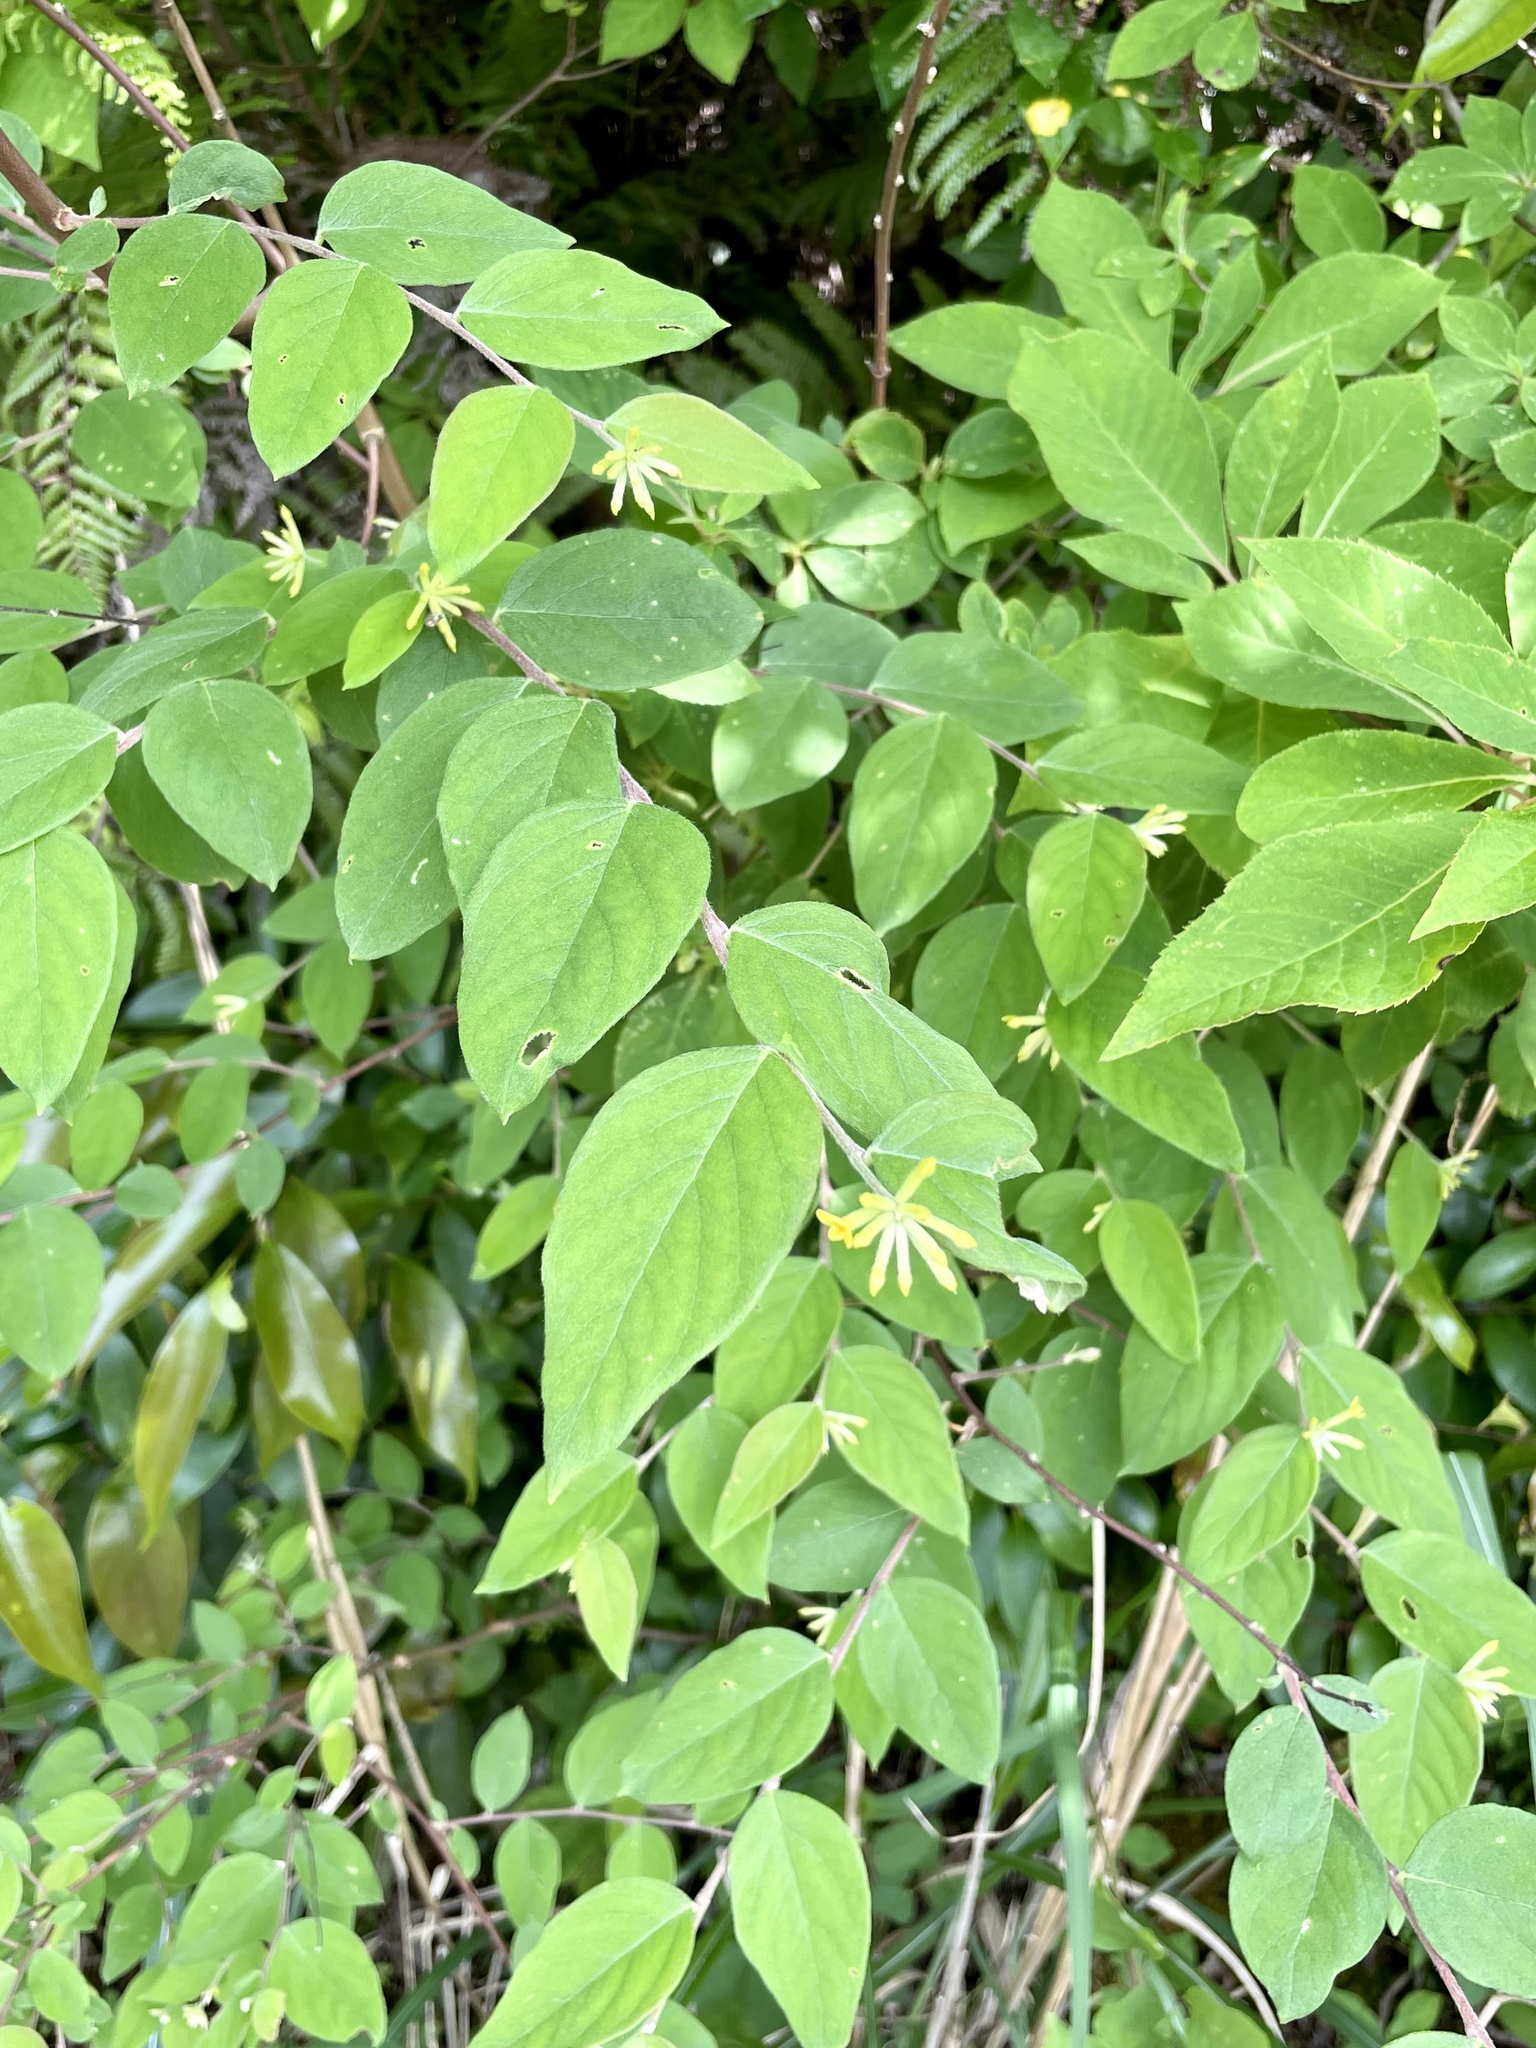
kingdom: Plantae
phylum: Tracheophyta
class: Magnoliopsida
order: Malvales
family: Thymelaeaceae
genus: Wikstroemia
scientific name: Wikstroemia sikokiana
